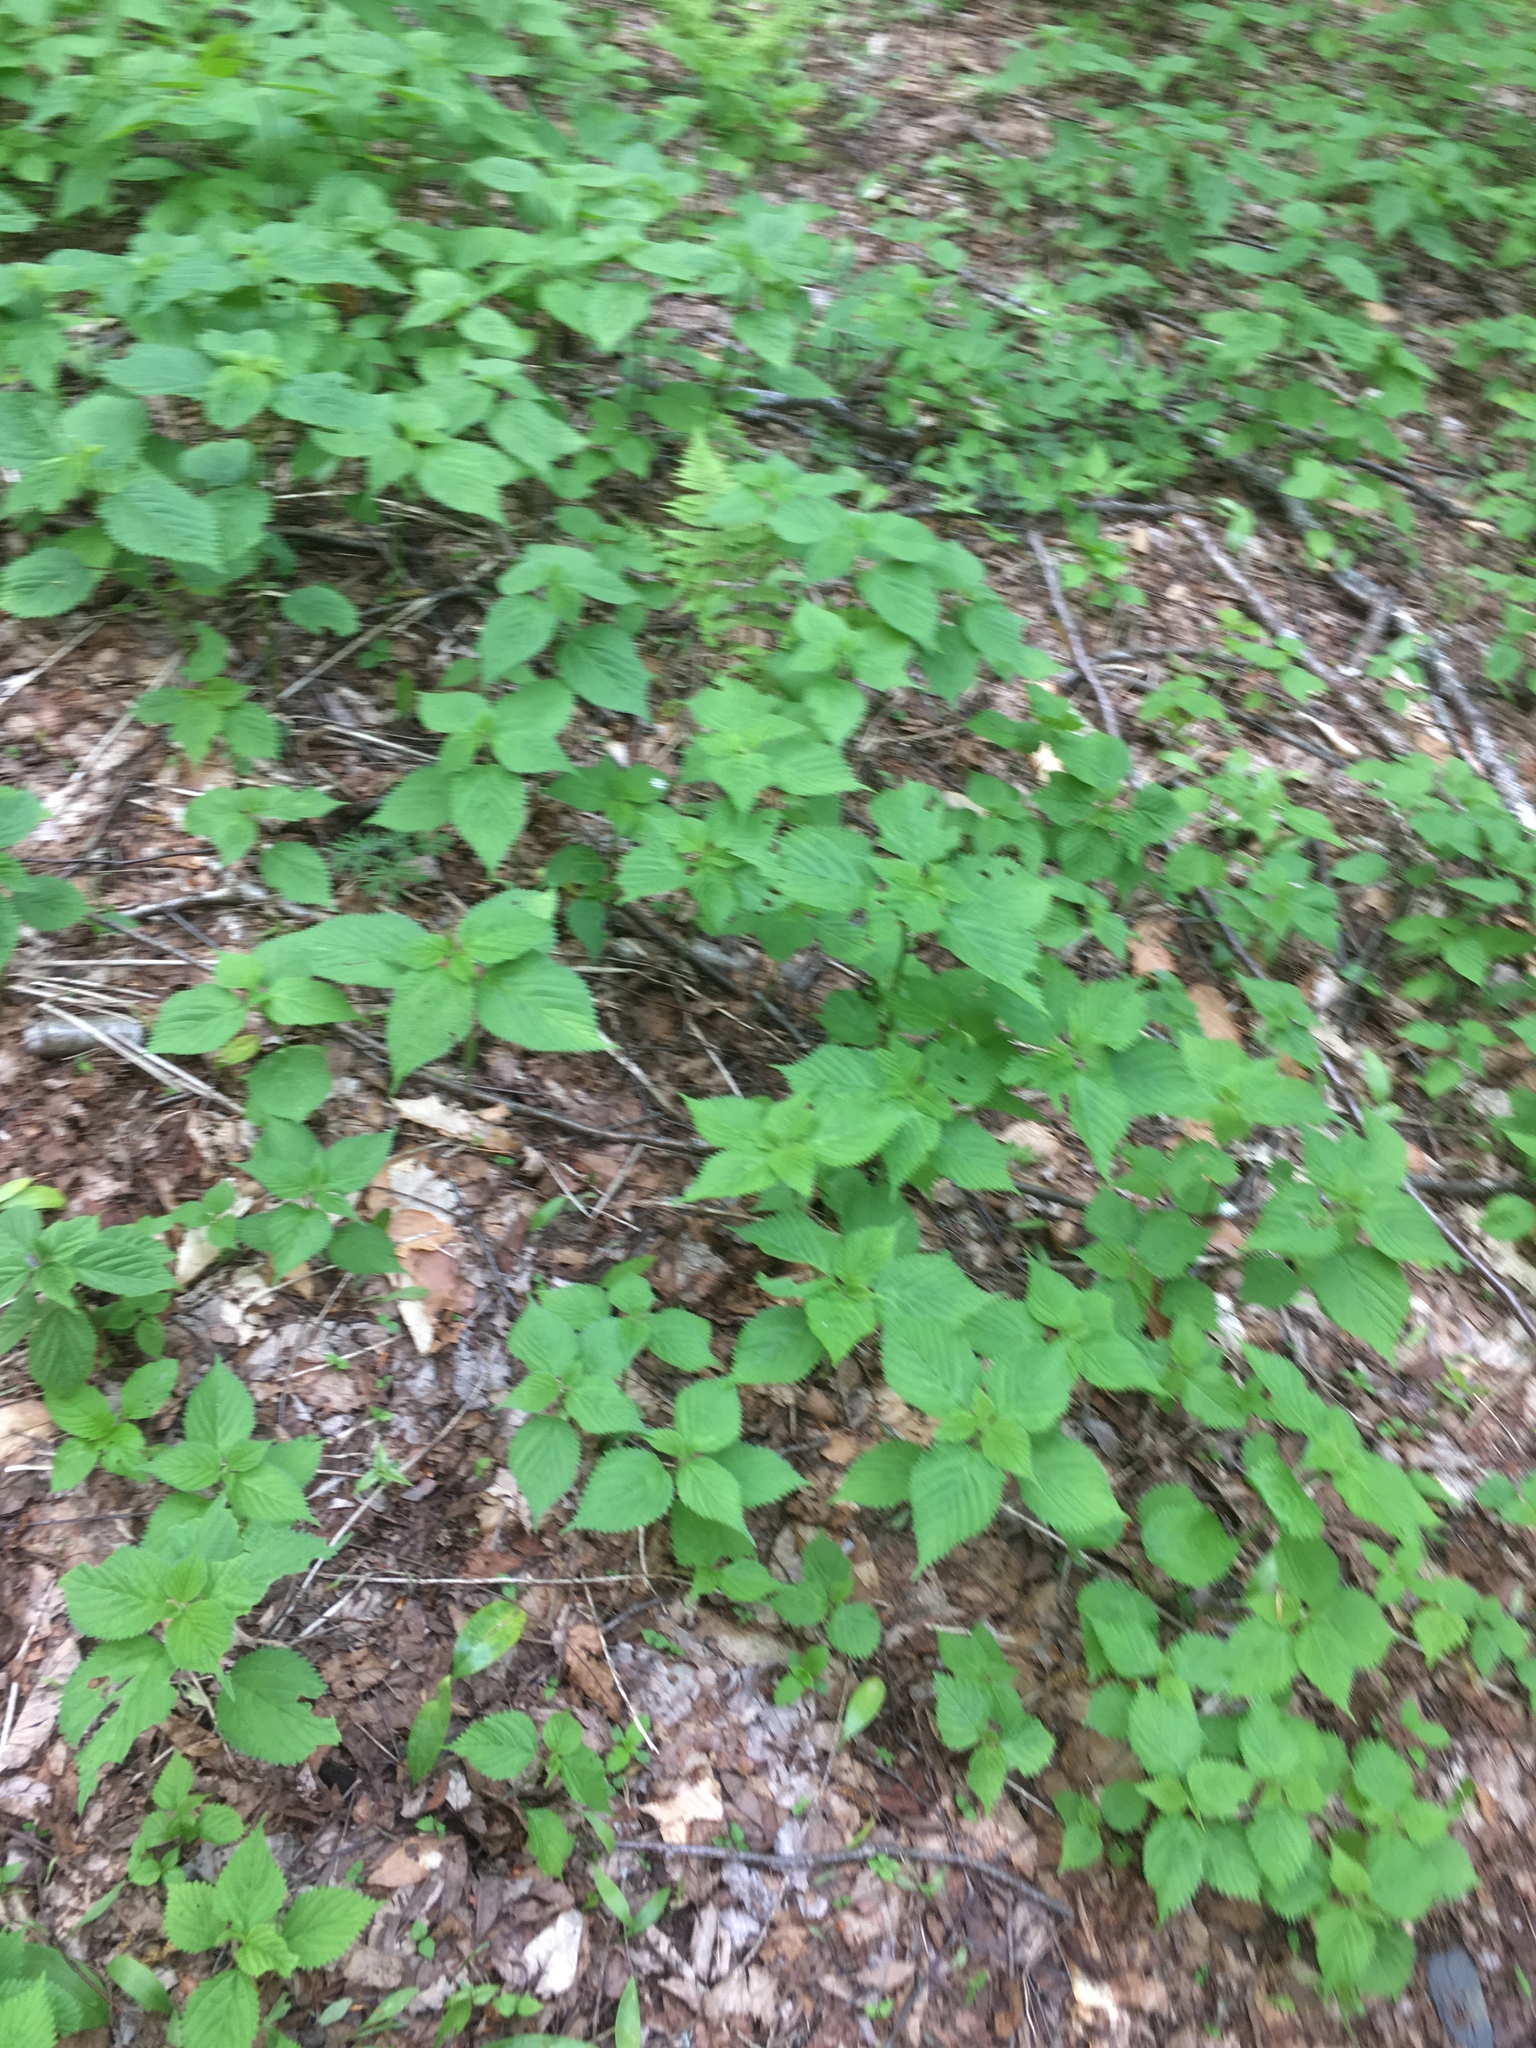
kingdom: Plantae
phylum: Tracheophyta
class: Magnoliopsida
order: Rosales
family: Urticaceae
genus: Laportea
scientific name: Laportea canadensis
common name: Canada nettle
